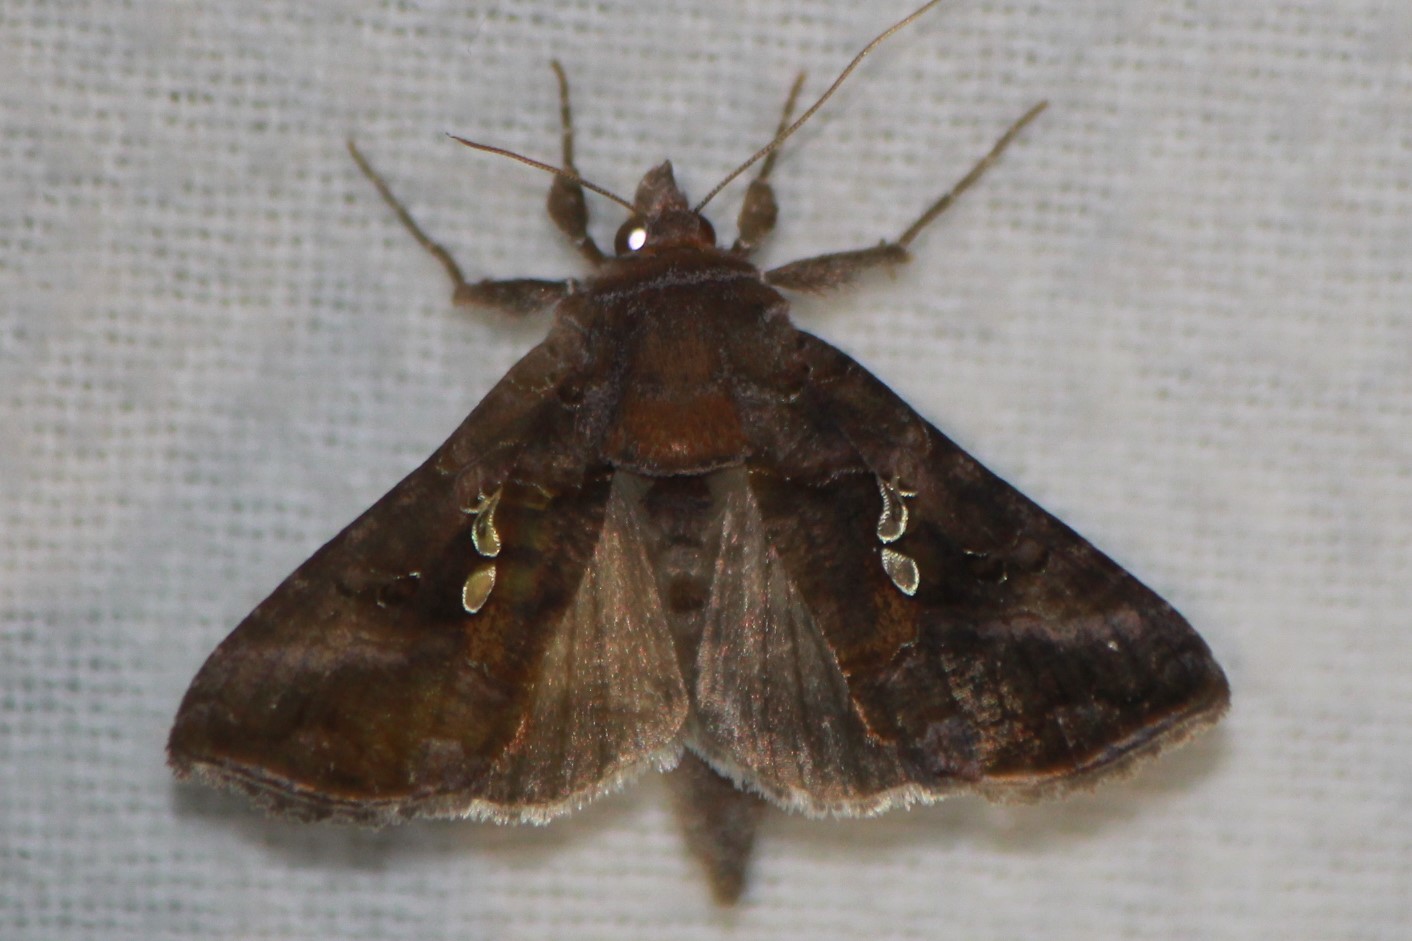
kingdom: Animalia
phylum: Arthropoda
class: Insecta
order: Lepidoptera
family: Noctuidae
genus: Autographa
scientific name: Autographa precationis
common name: Common looper moth
